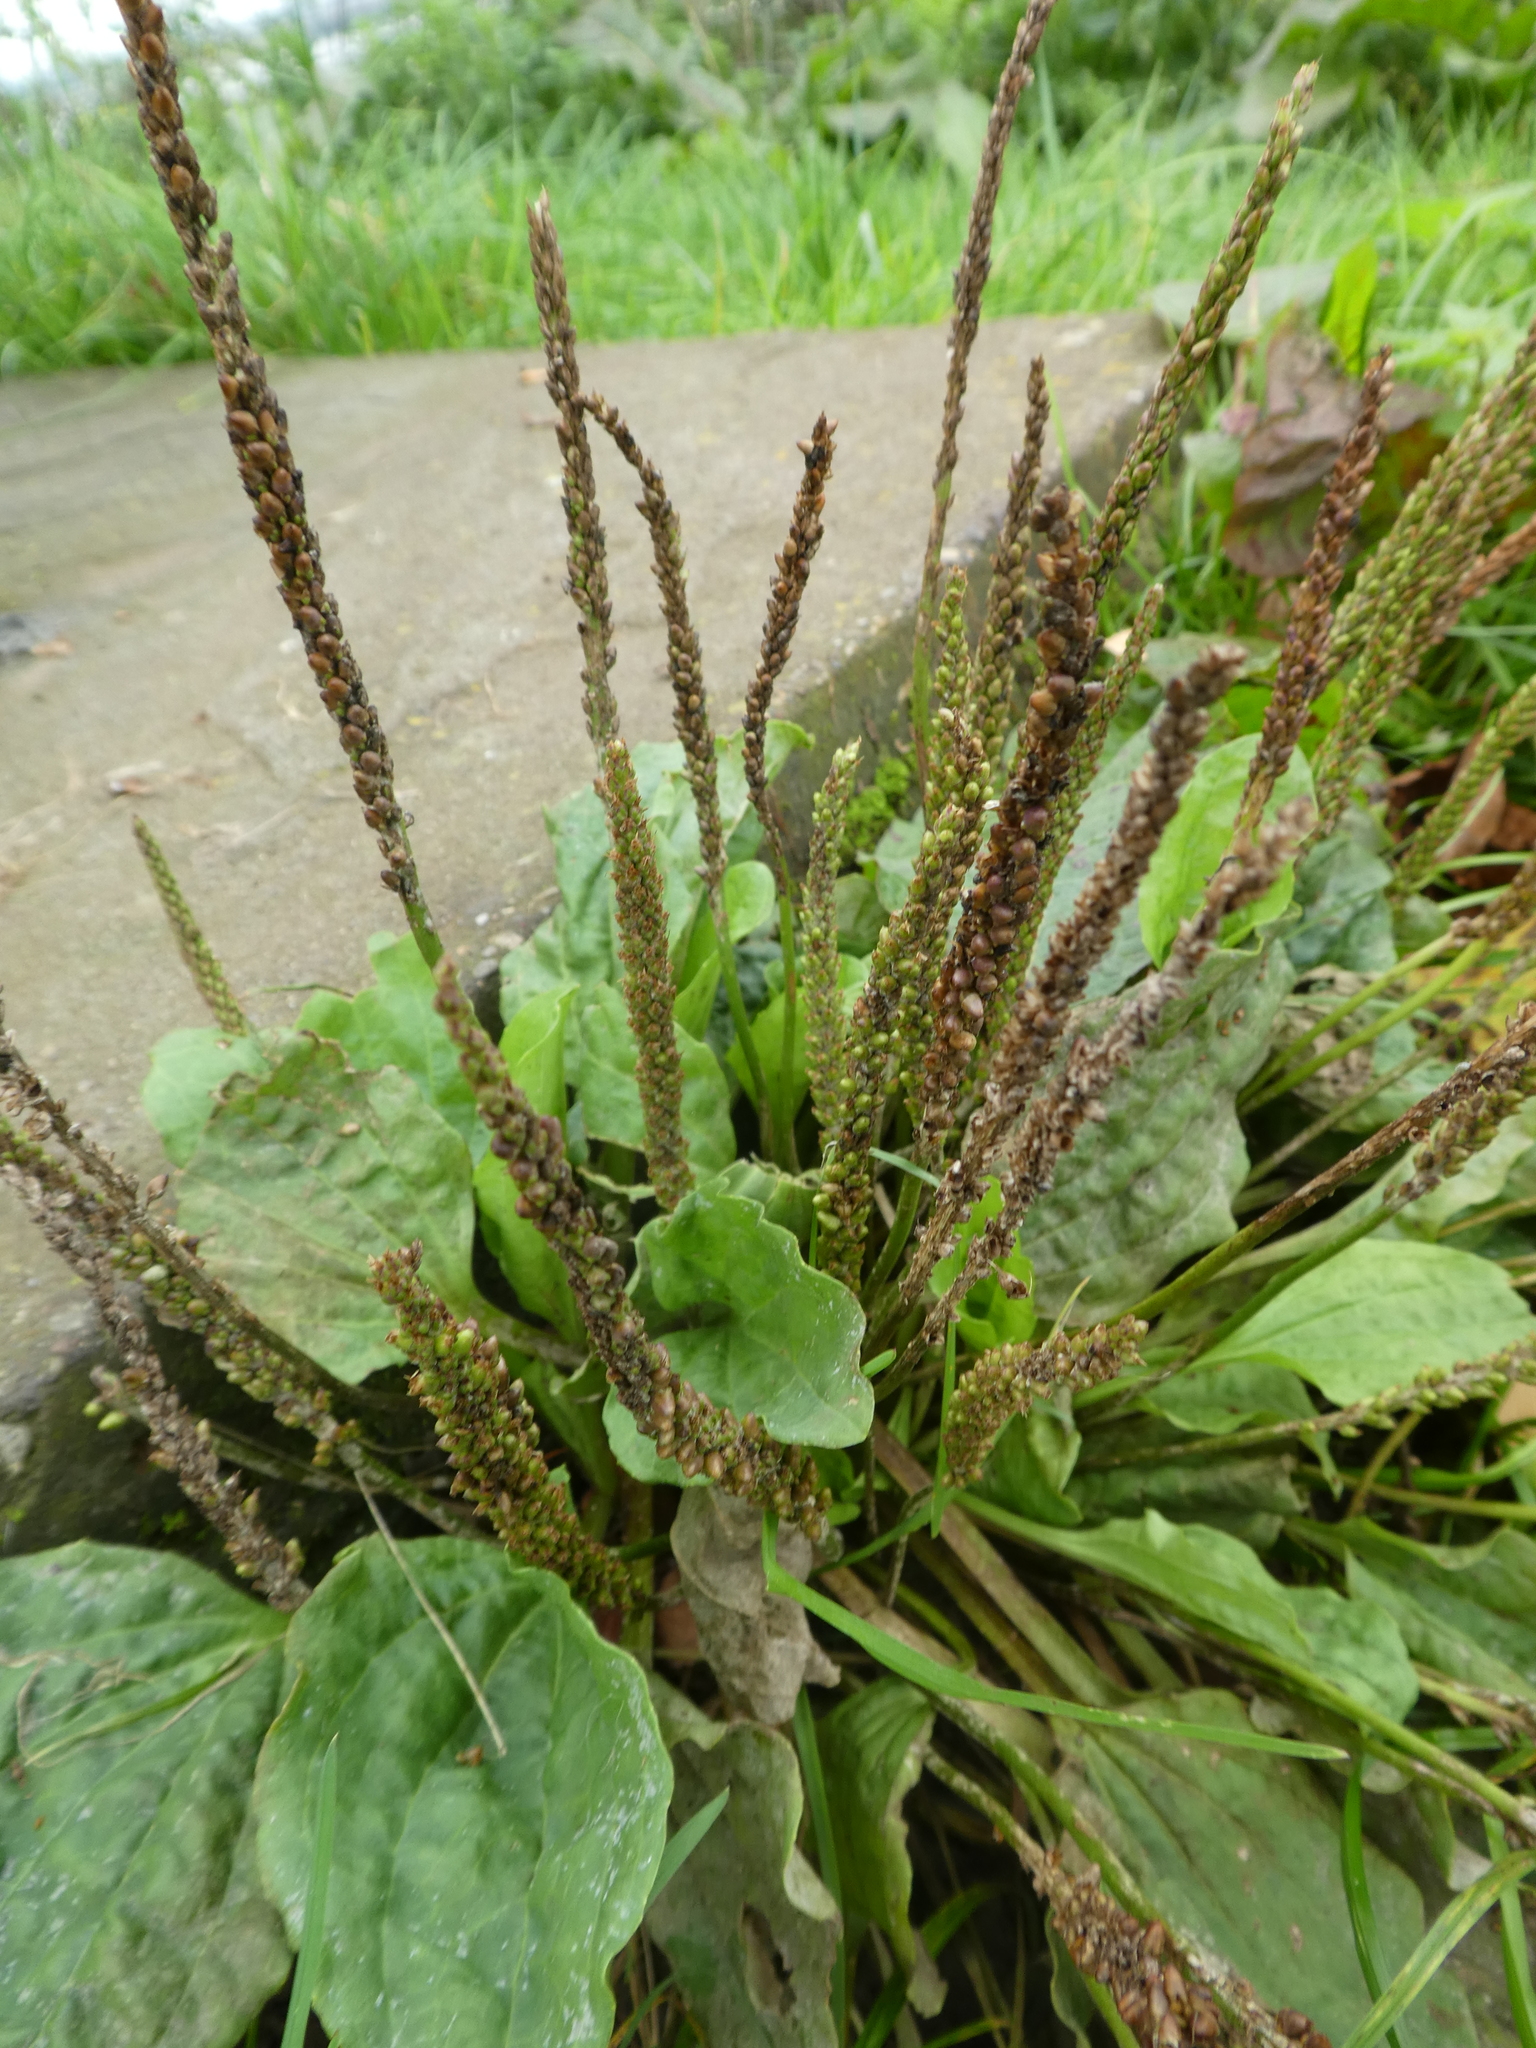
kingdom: Plantae
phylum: Tracheophyta
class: Magnoliopsida
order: Lamiales
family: Plantaginaceae
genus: Plantago
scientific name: Plantago major
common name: Common plantain
